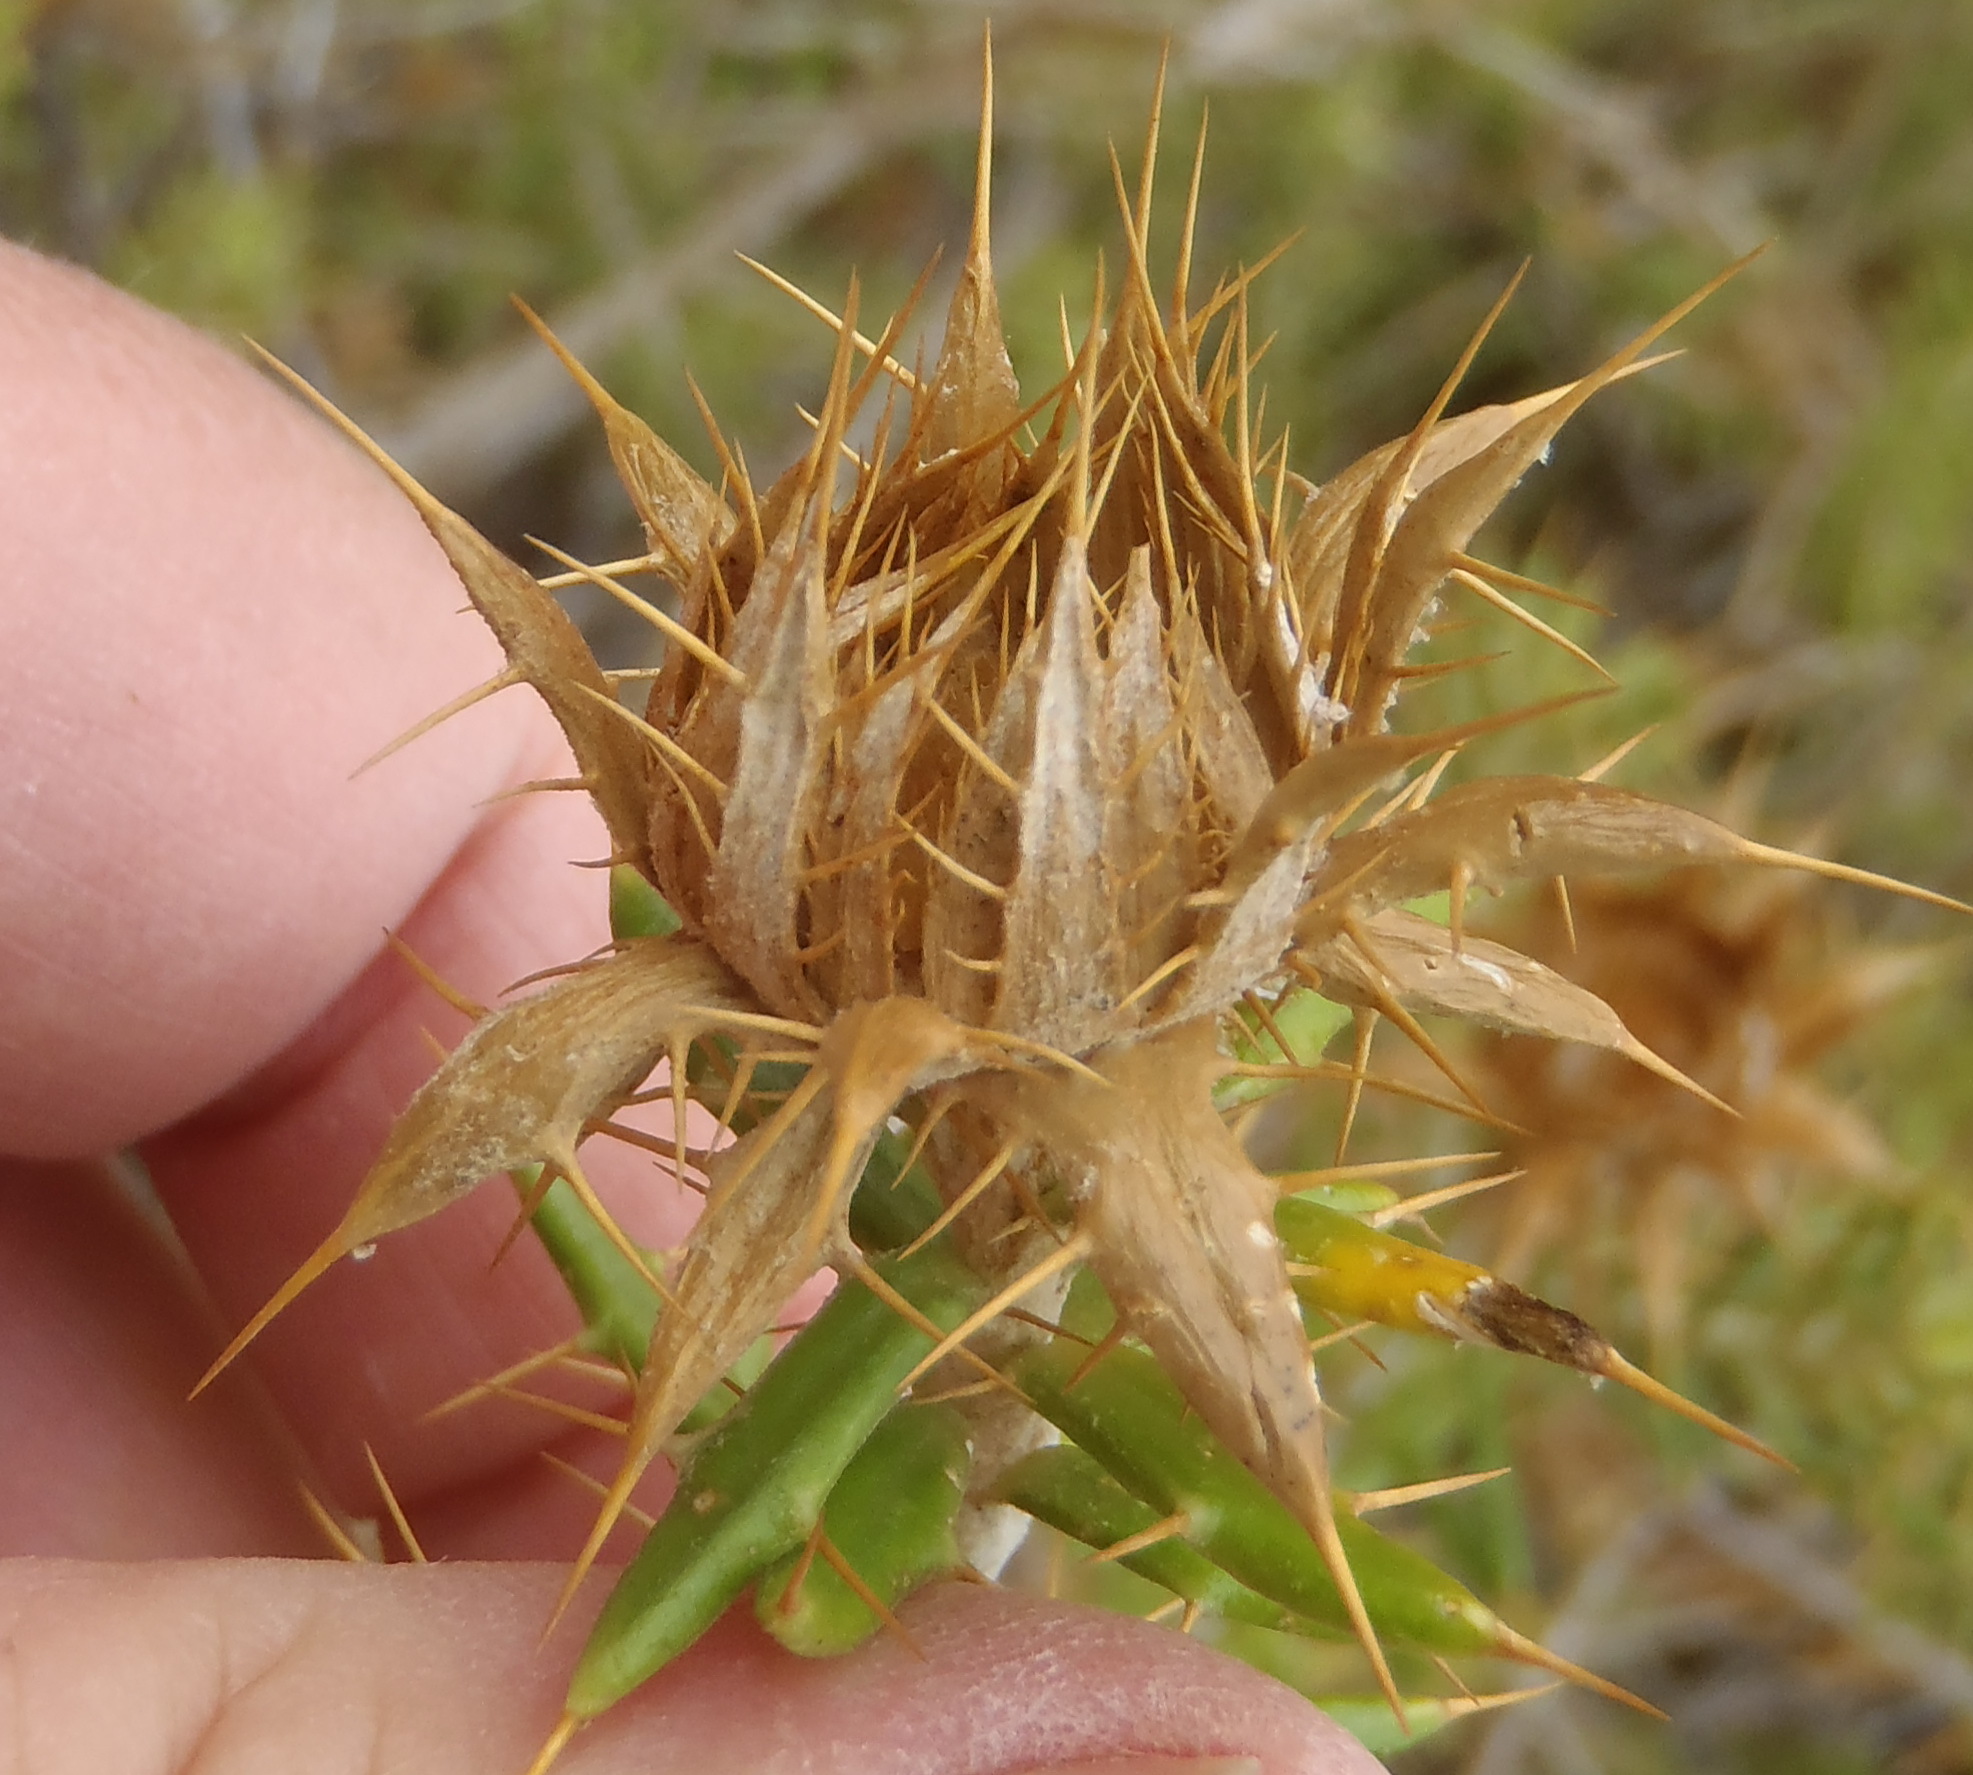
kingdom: Plantae
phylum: Tracheophyta
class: Magnoliopsida
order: Asterales
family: Asteraceae
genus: Berkheya
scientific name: Berkheya angustifolia
